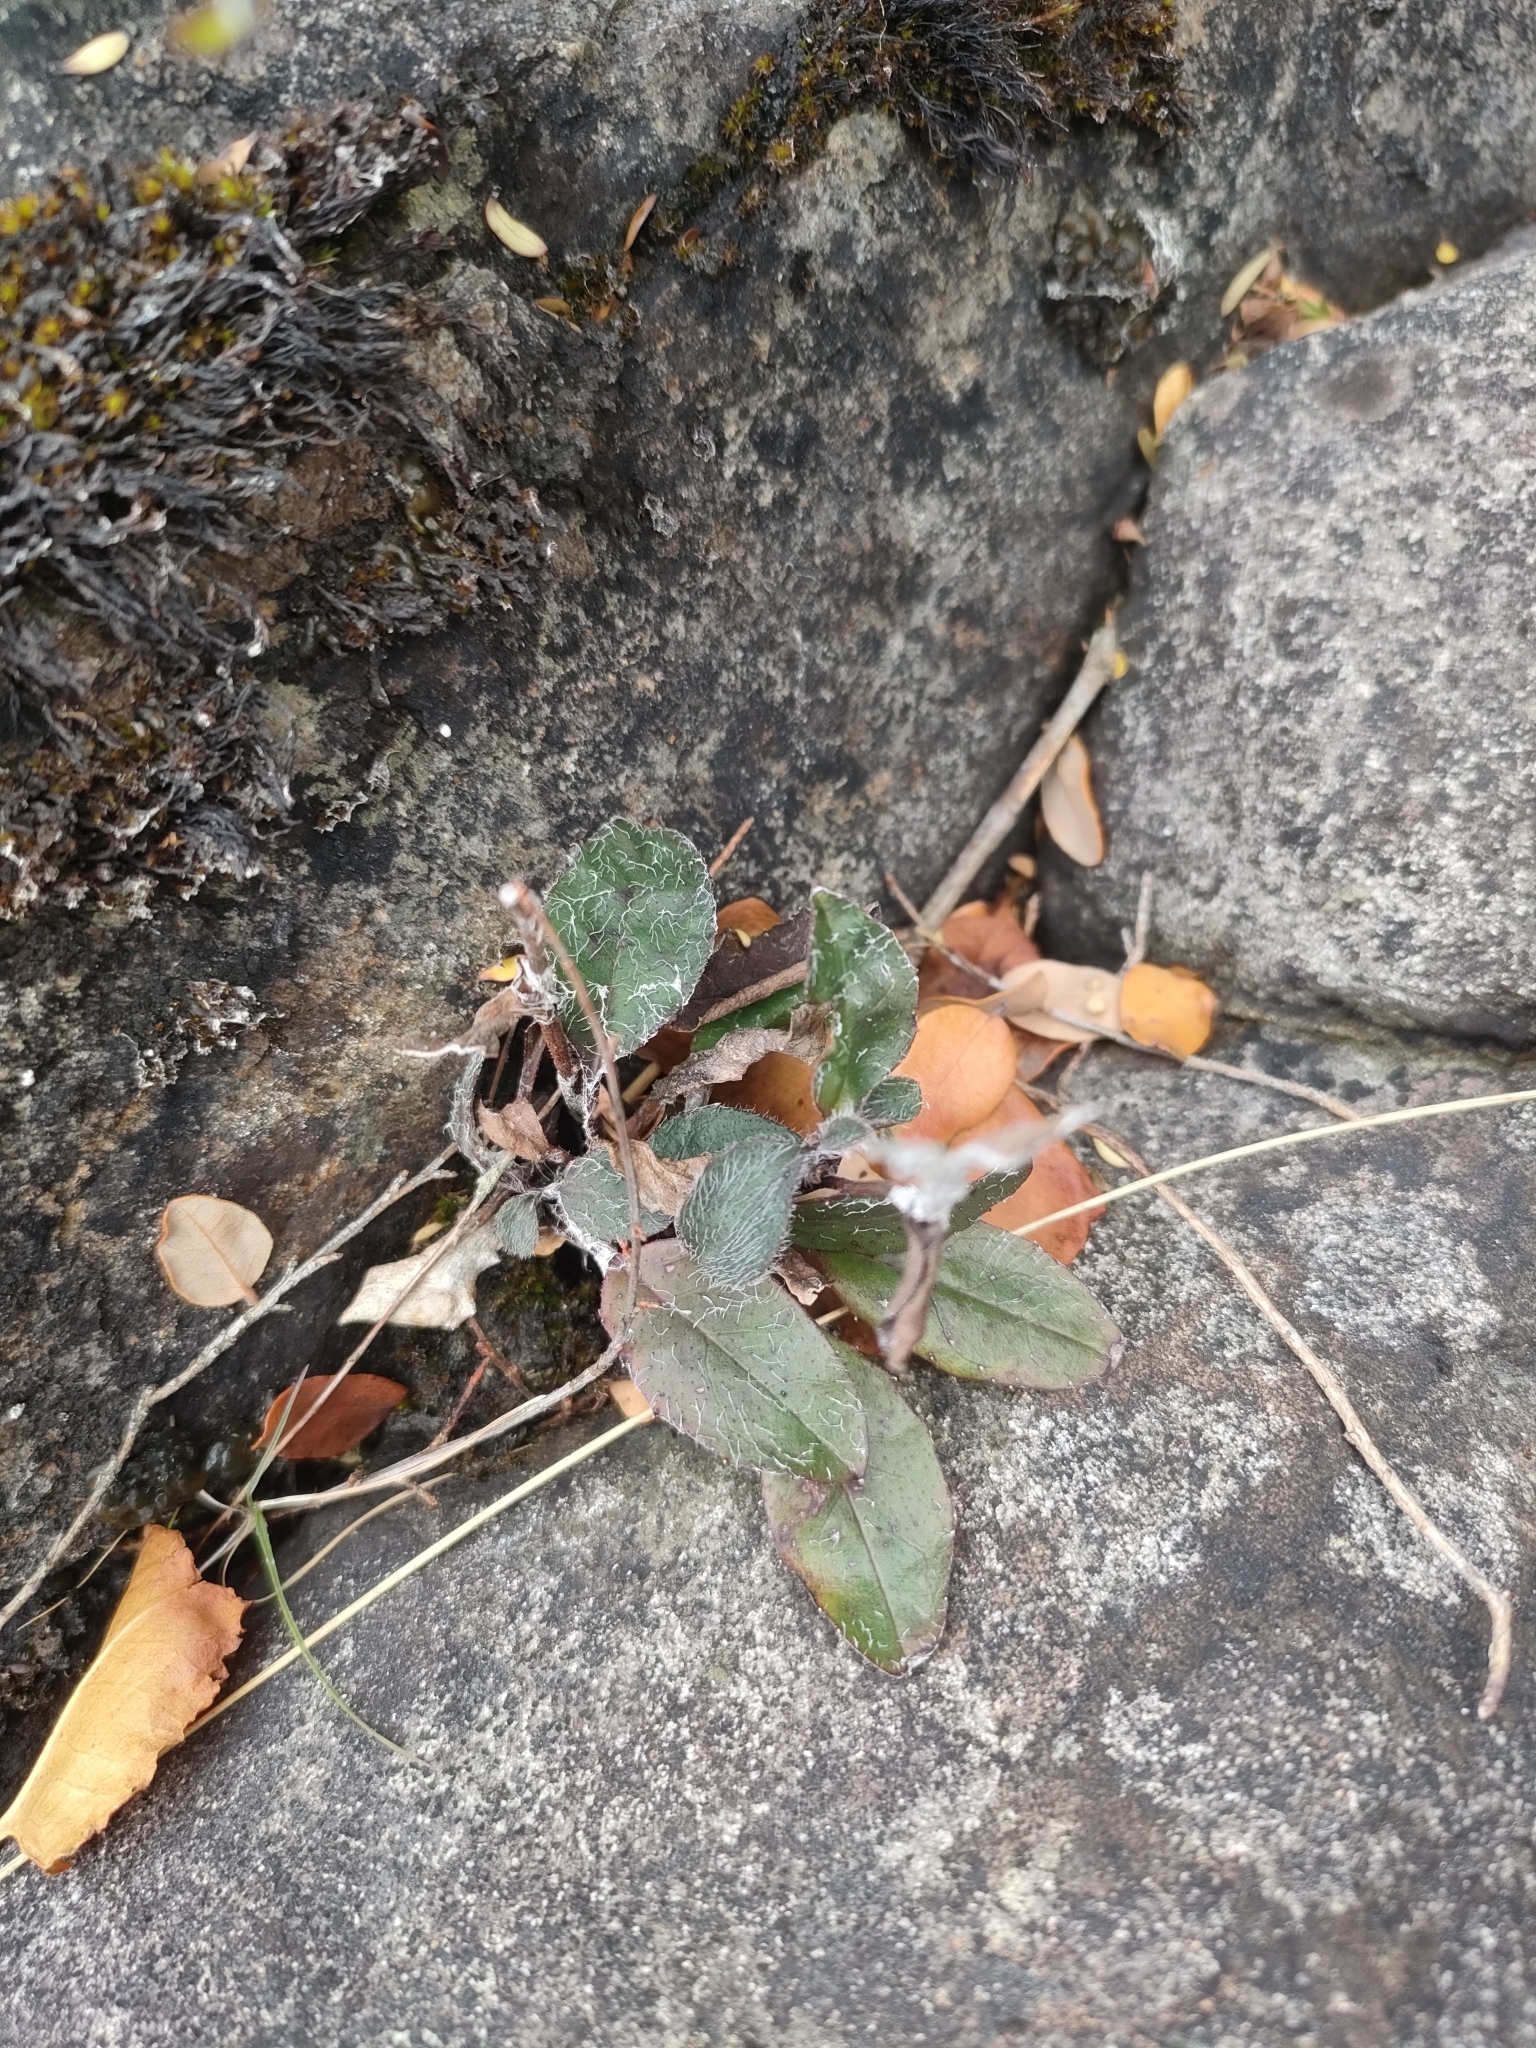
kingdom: Plantae
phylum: Tracheophyta
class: Magnoliopsida
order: Asterales
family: Asteraceae
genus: Hieracium
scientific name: Hieracium lepidulum
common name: Irregular-toothed hawkweed
